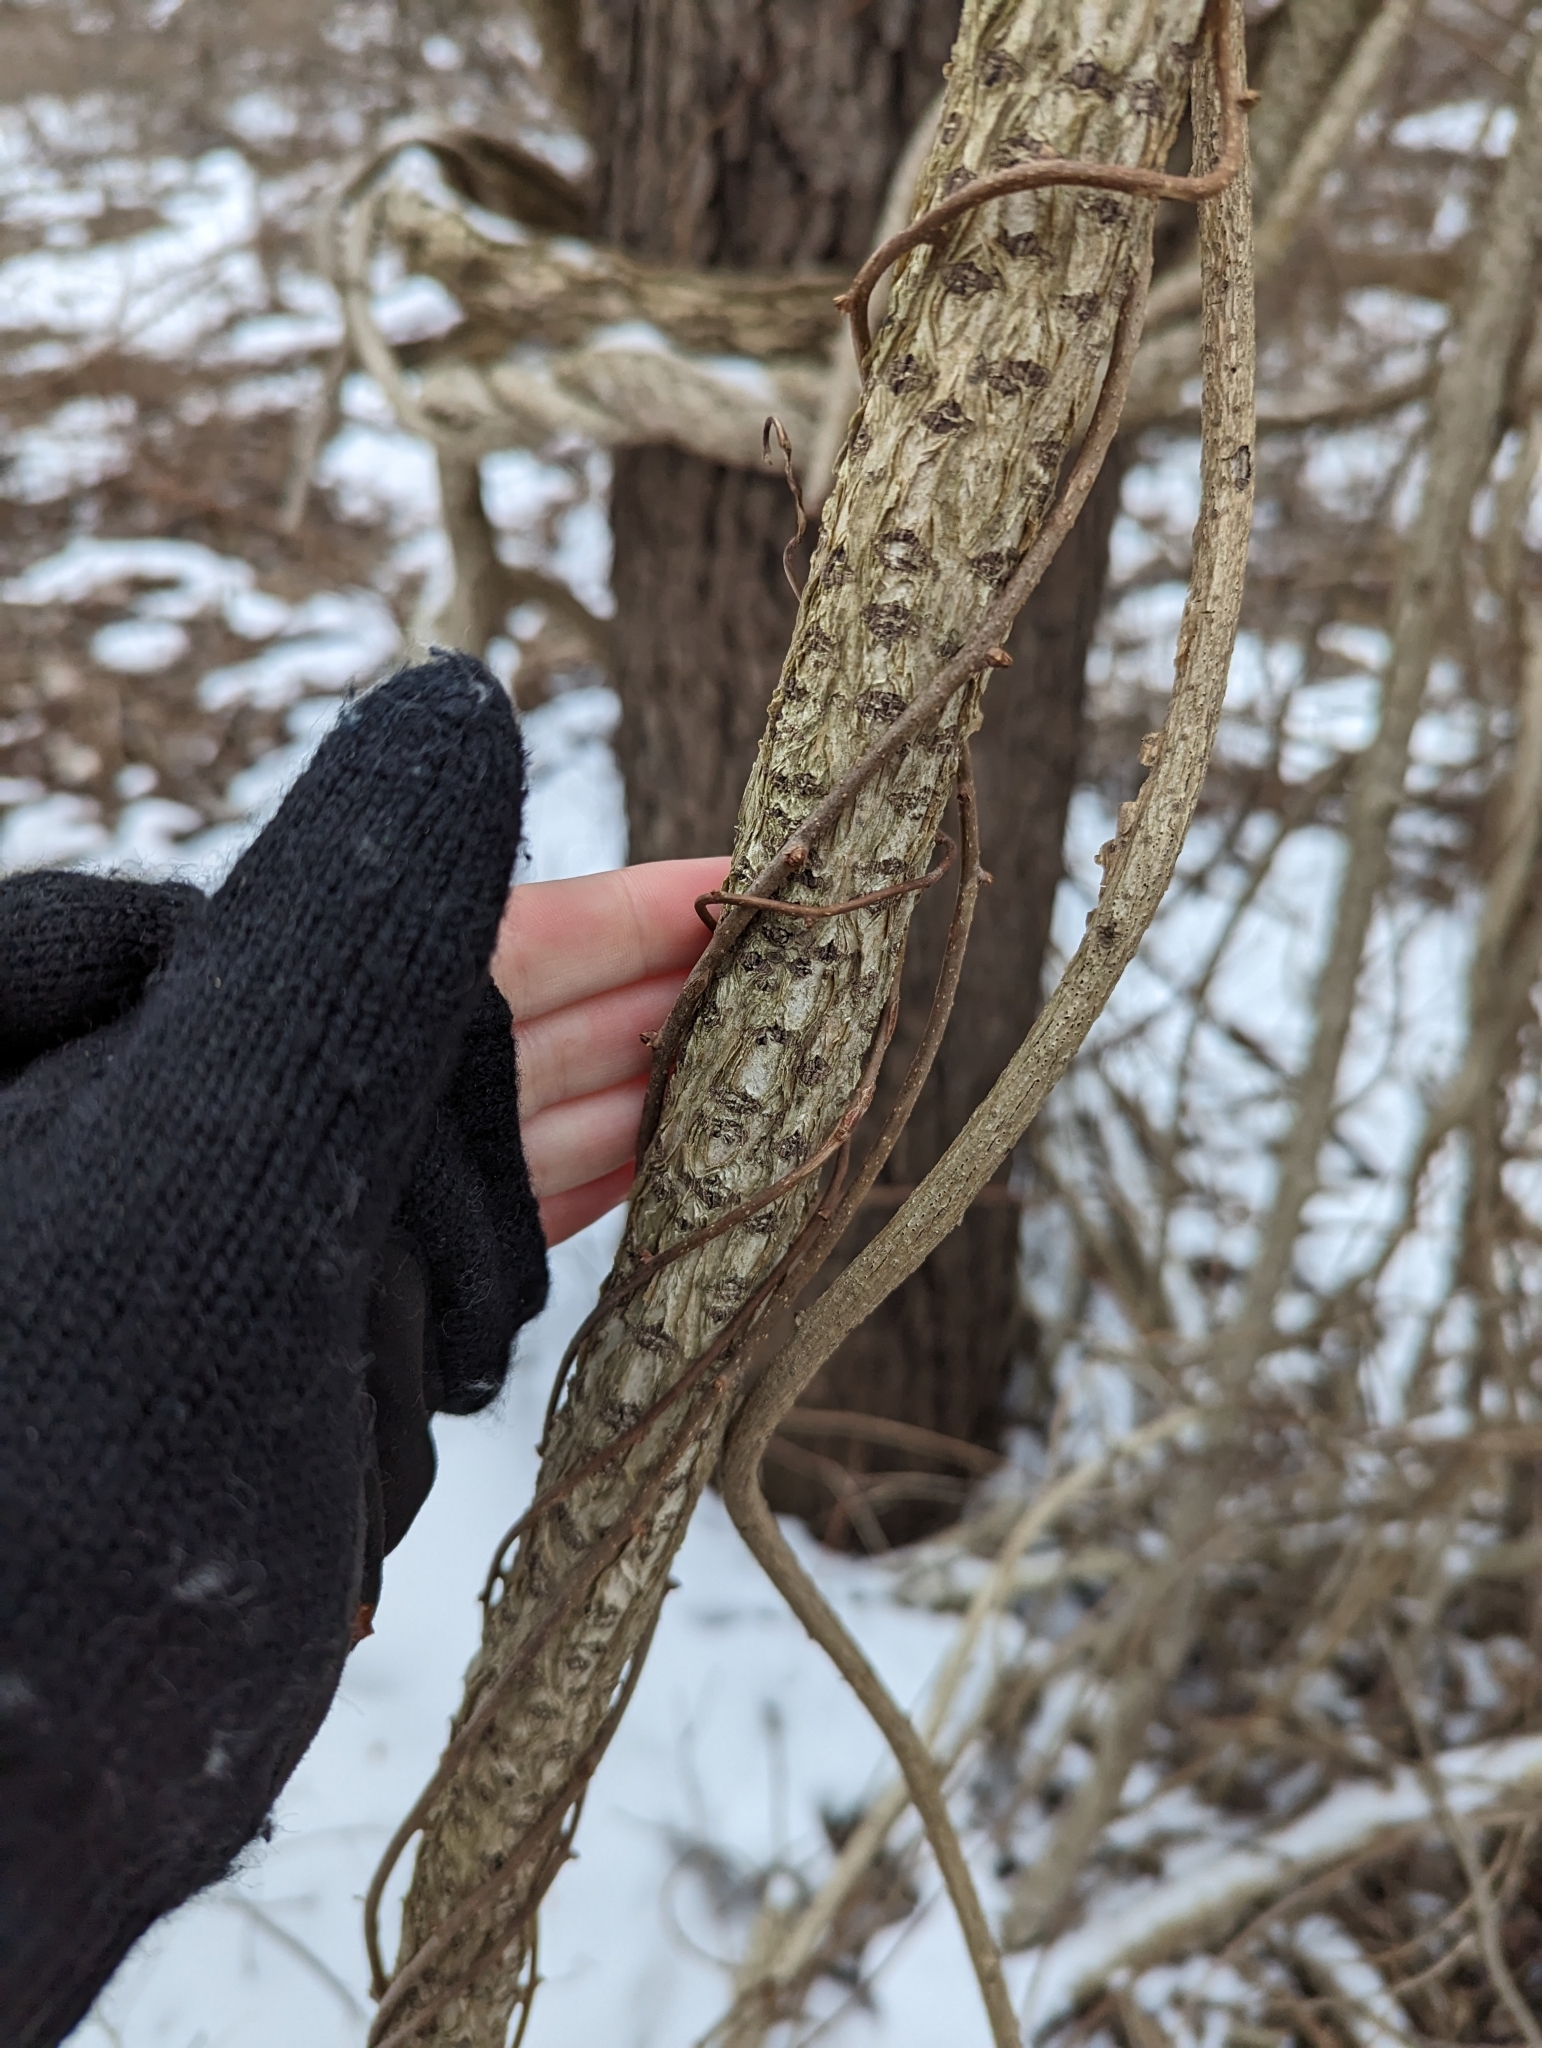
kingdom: Plantae
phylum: Tracheophyta
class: Magnoliopsida
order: Celastrales
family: Celastraceae
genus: Celastrus
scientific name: Celastrus orbiculatus
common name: Oriental bittersweet
